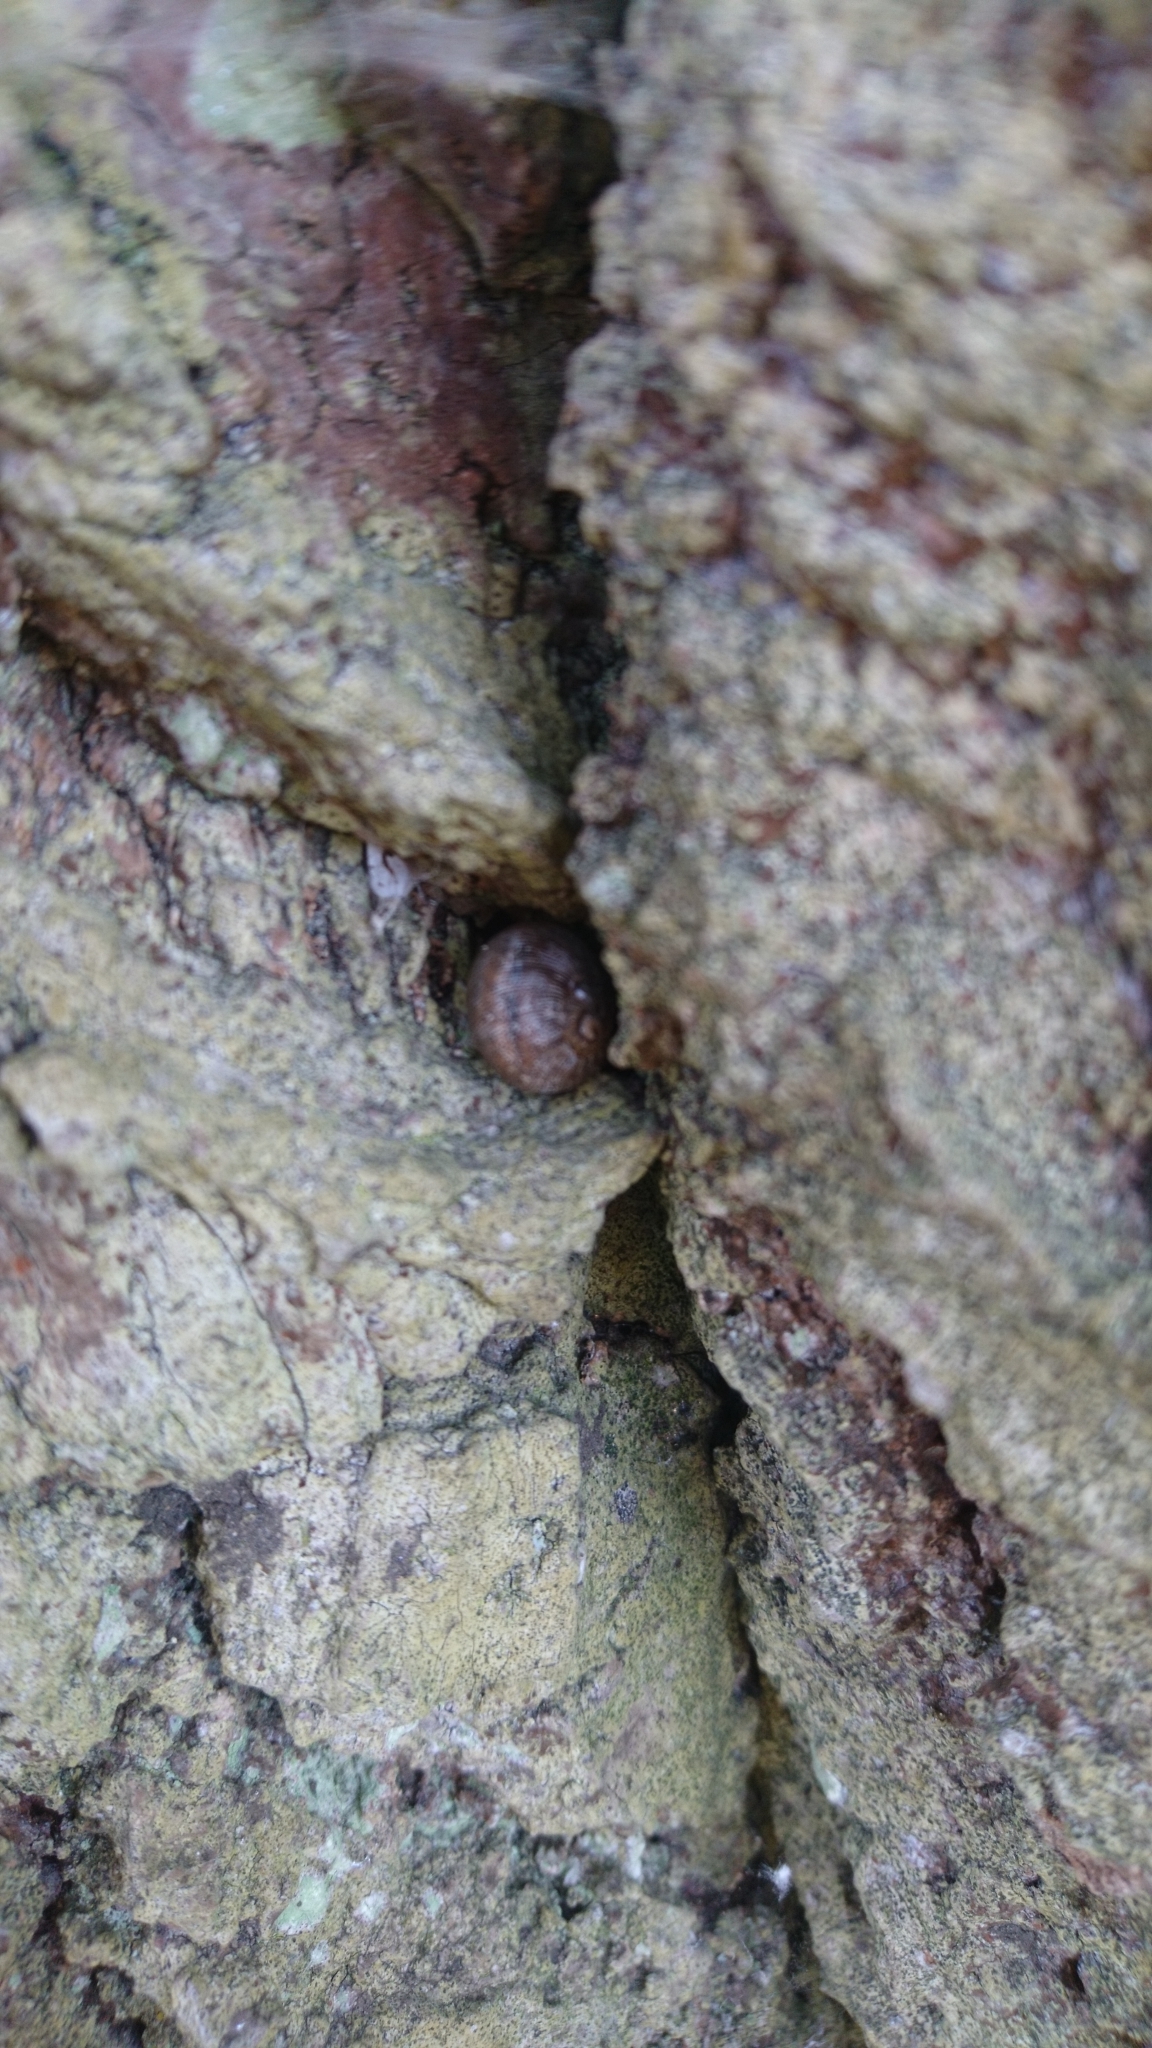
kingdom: Animalia
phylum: Mollusca
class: Gastropoda
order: Stylommatophora
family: Helicidae
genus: Cornu
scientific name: Cornu aspersum
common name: Brown garden snail
